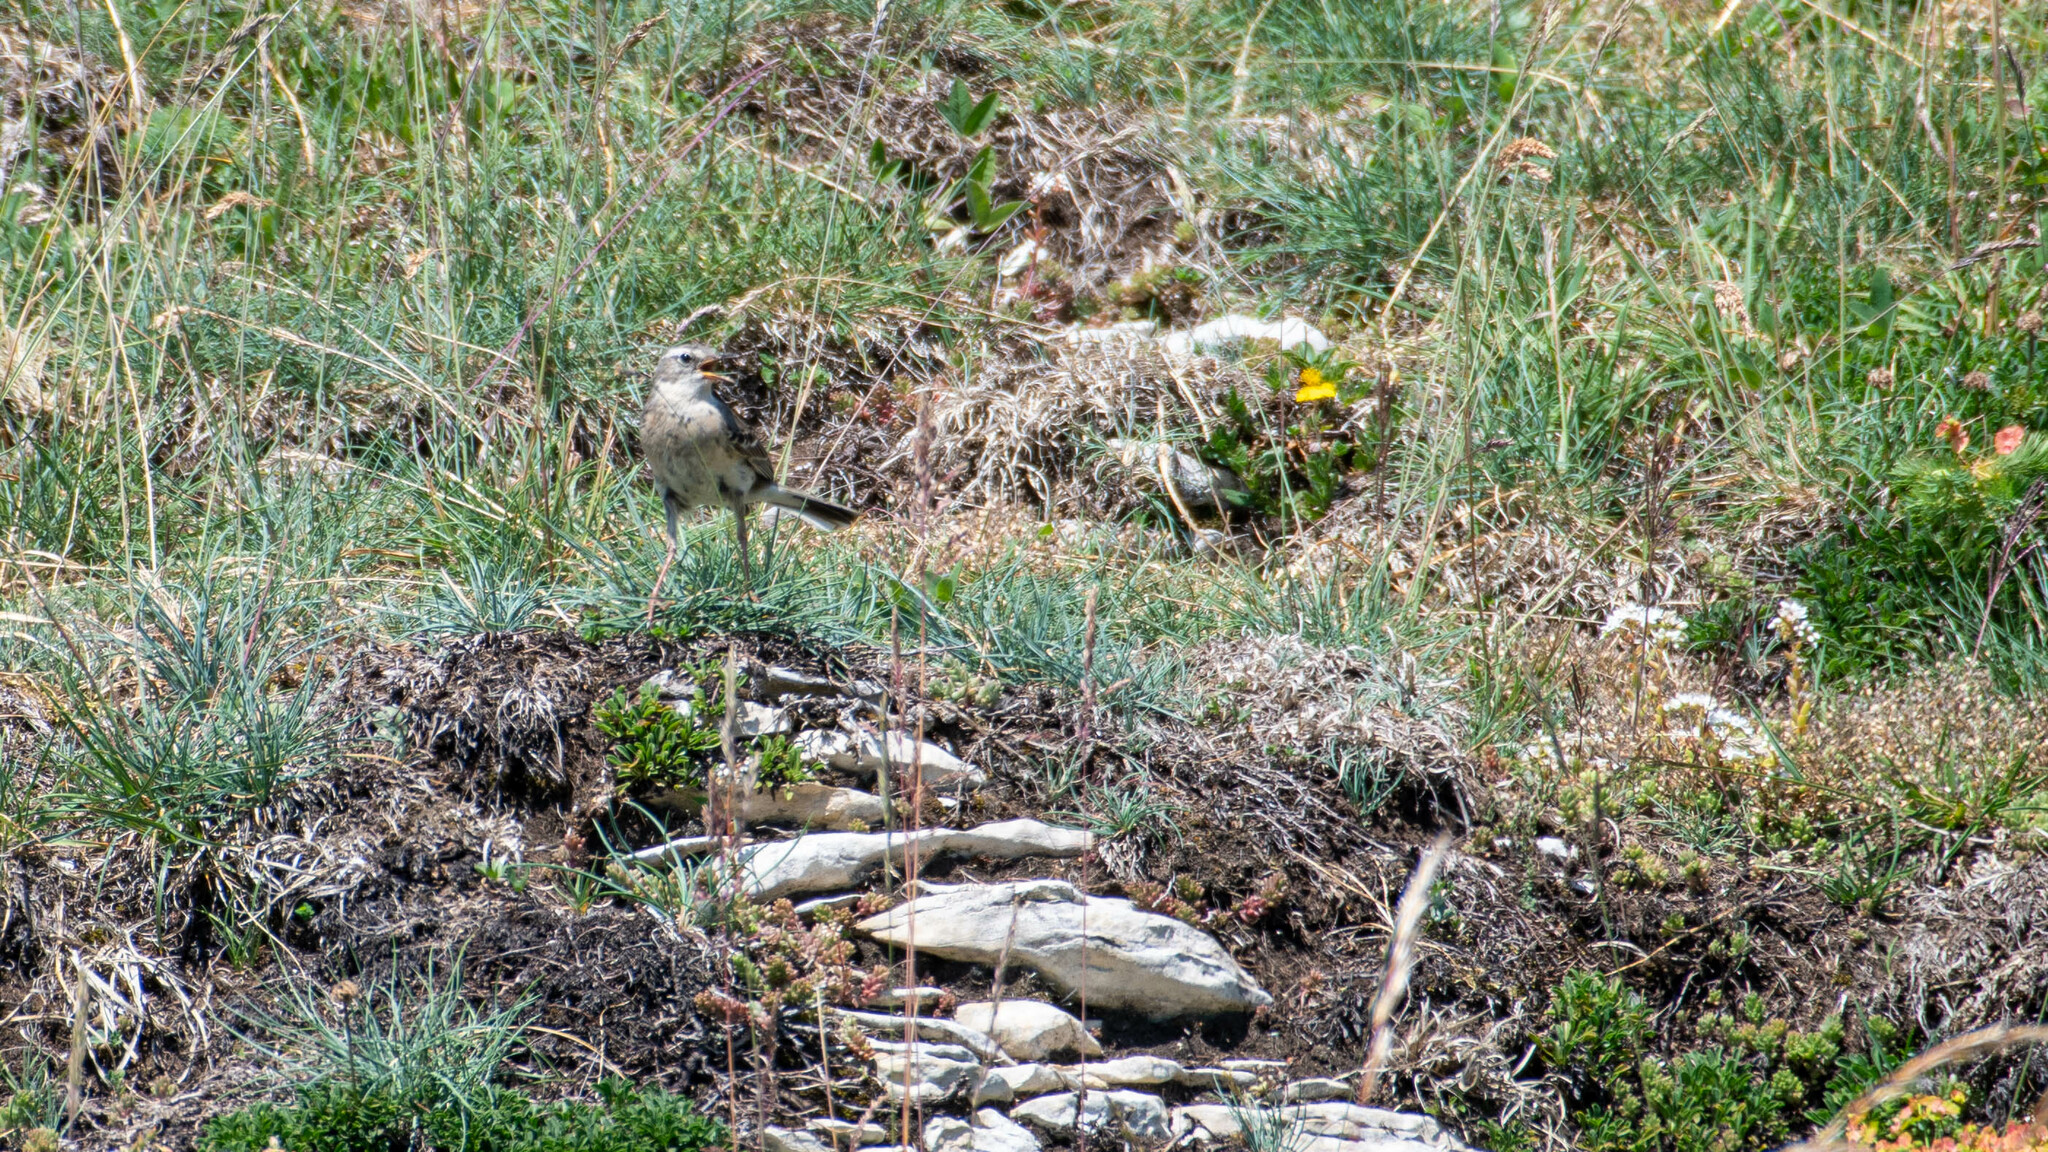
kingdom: Animalia
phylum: Chordata
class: Aves
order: Passeriformes
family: Motacillidae
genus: Anthus
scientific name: Anthus spinoletta
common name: Water pipit
